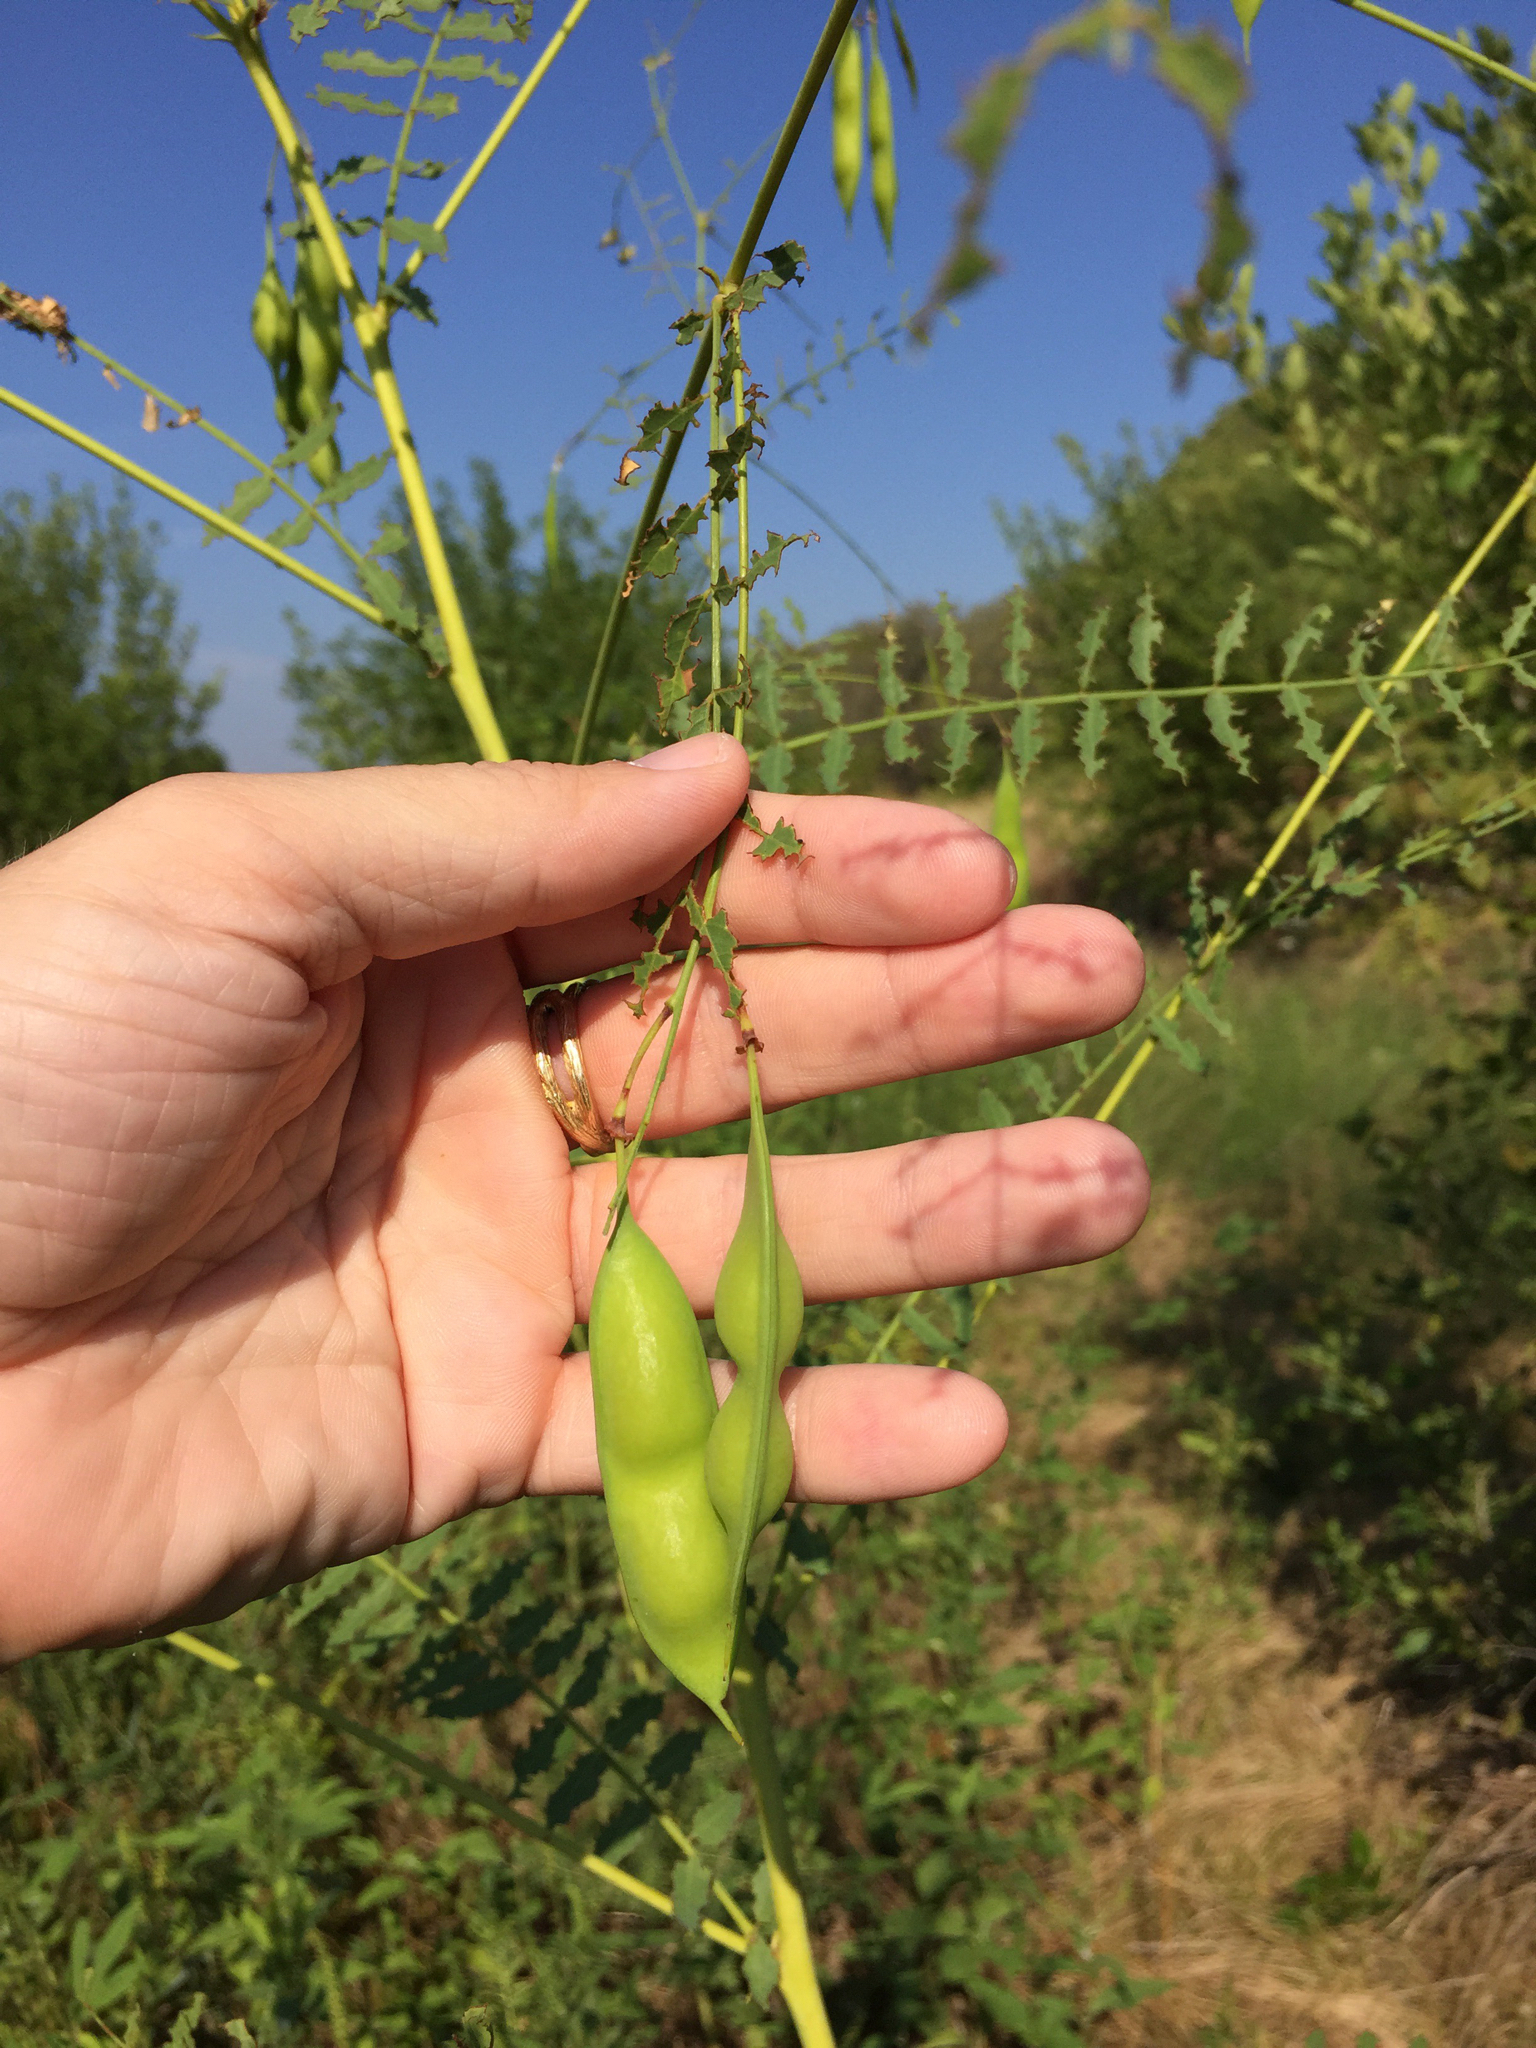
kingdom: Plantae
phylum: Tracheophyta
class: Magnoliopsida
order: Fabales
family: Fabaceae
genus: Sesbania
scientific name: Sesbania vesicaria
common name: Bagpod
